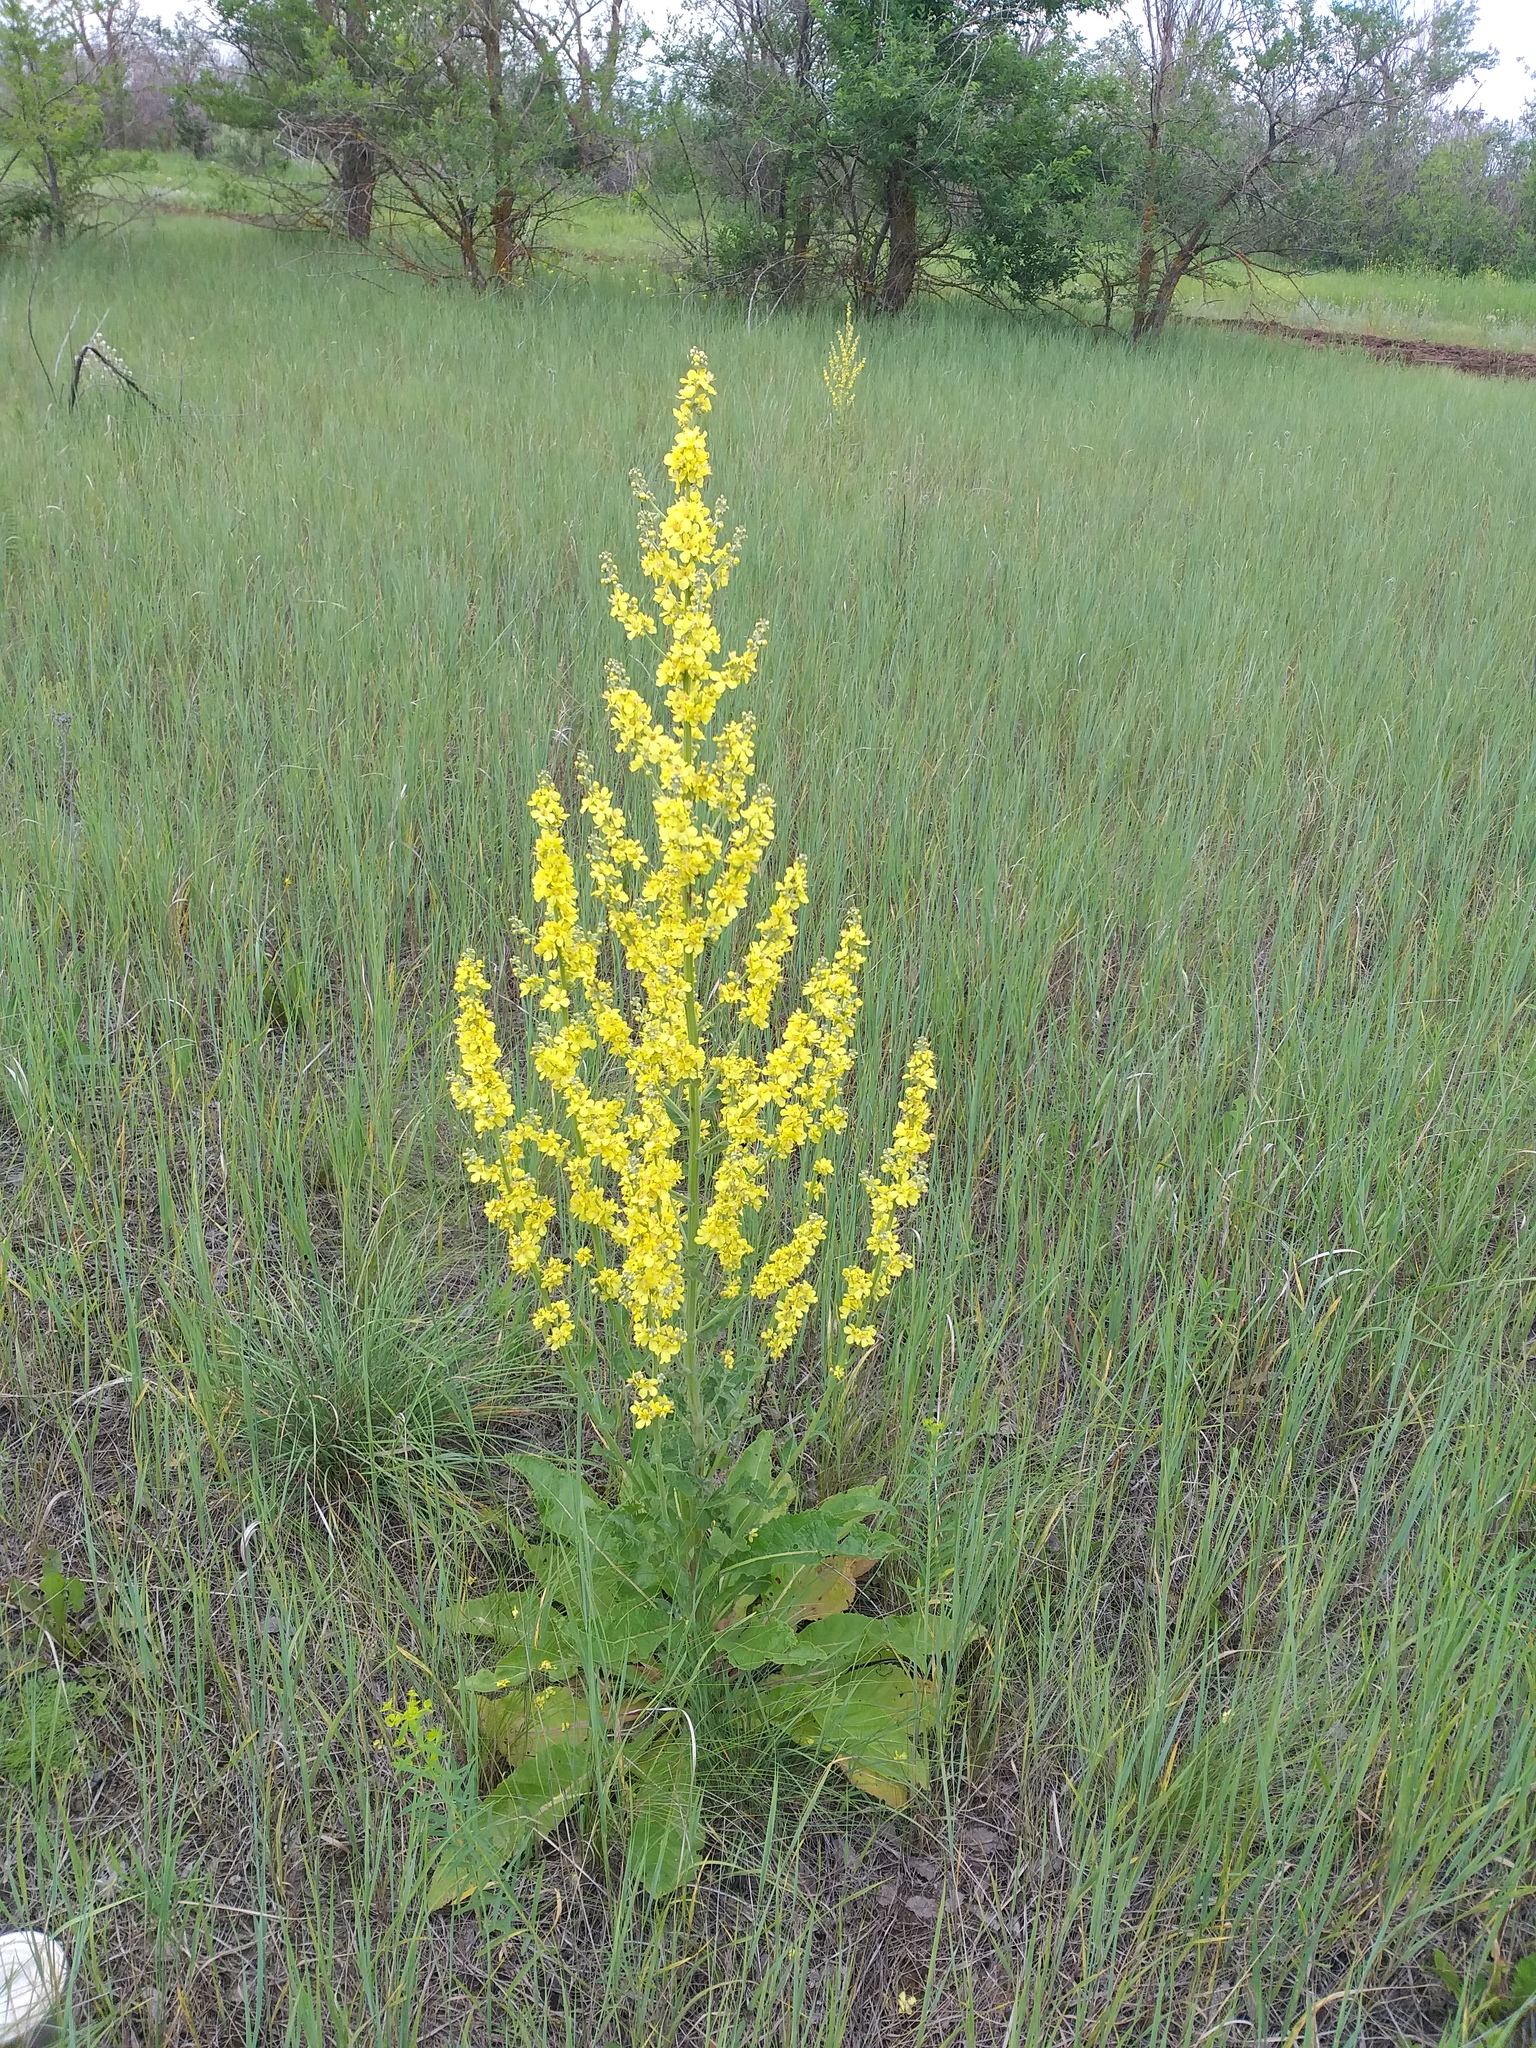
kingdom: Plantae
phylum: Tracheophyta
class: Magnoliopsida
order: Lamiales
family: Scrophulariaceae
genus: Verbascum
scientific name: Verbascum lychnitis
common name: White mullein
